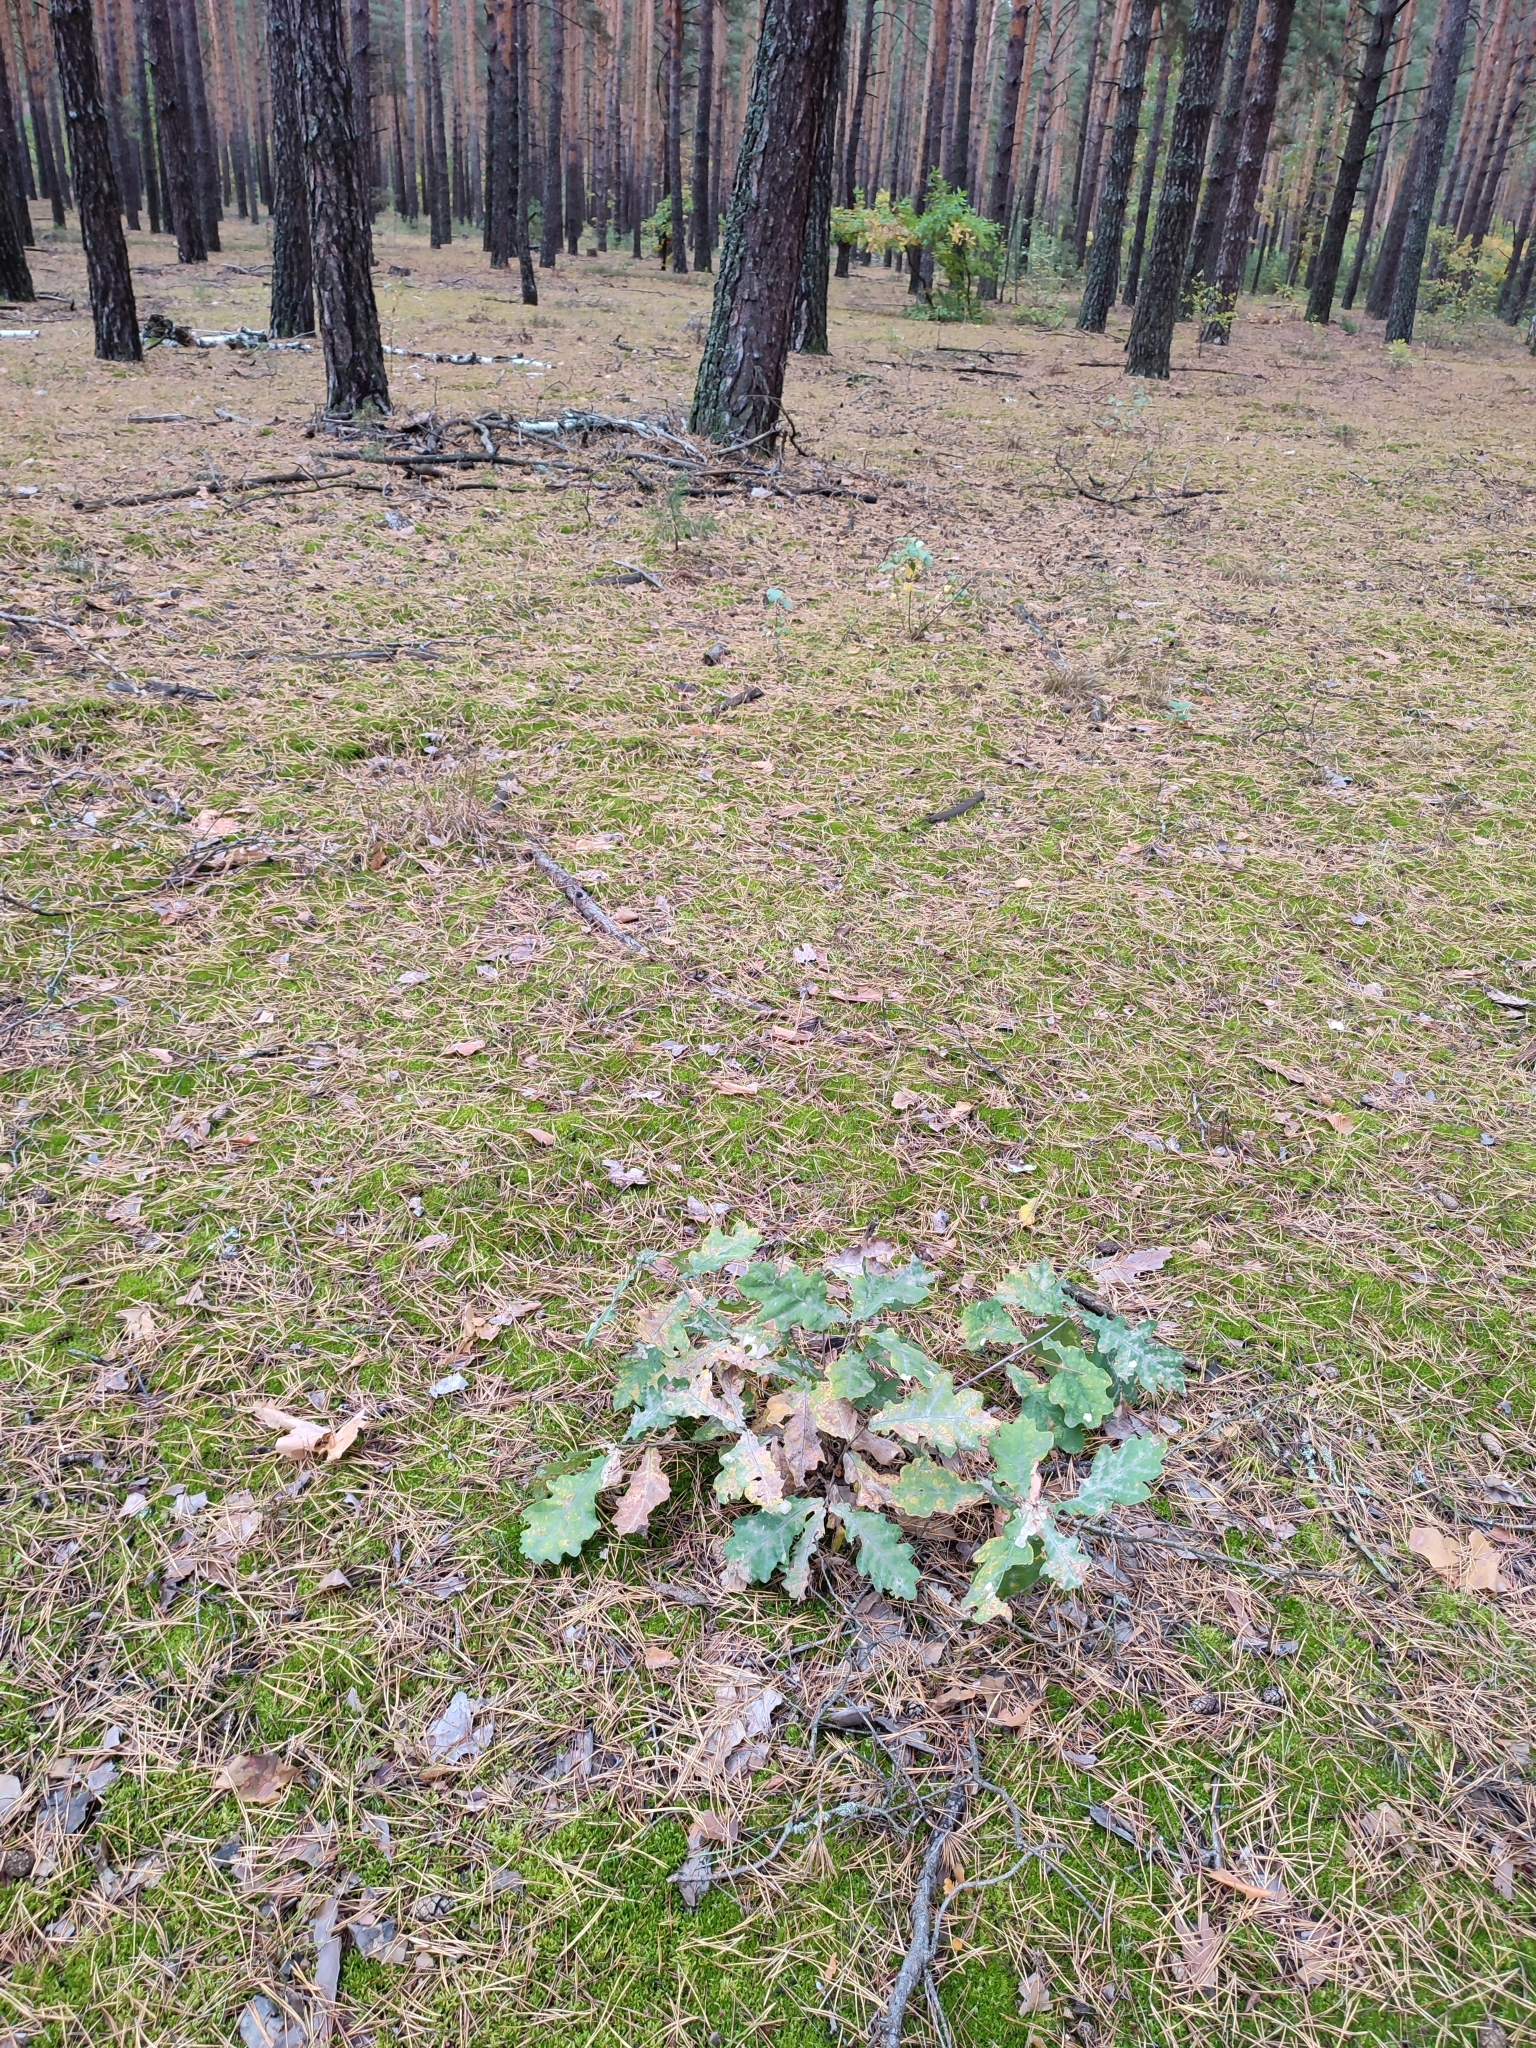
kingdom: Plantae
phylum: Tracheophyta
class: Magnoliopsida
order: Fagales
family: Fagaceae
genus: Quercus
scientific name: Quercus robur
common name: Pedunculate oak
